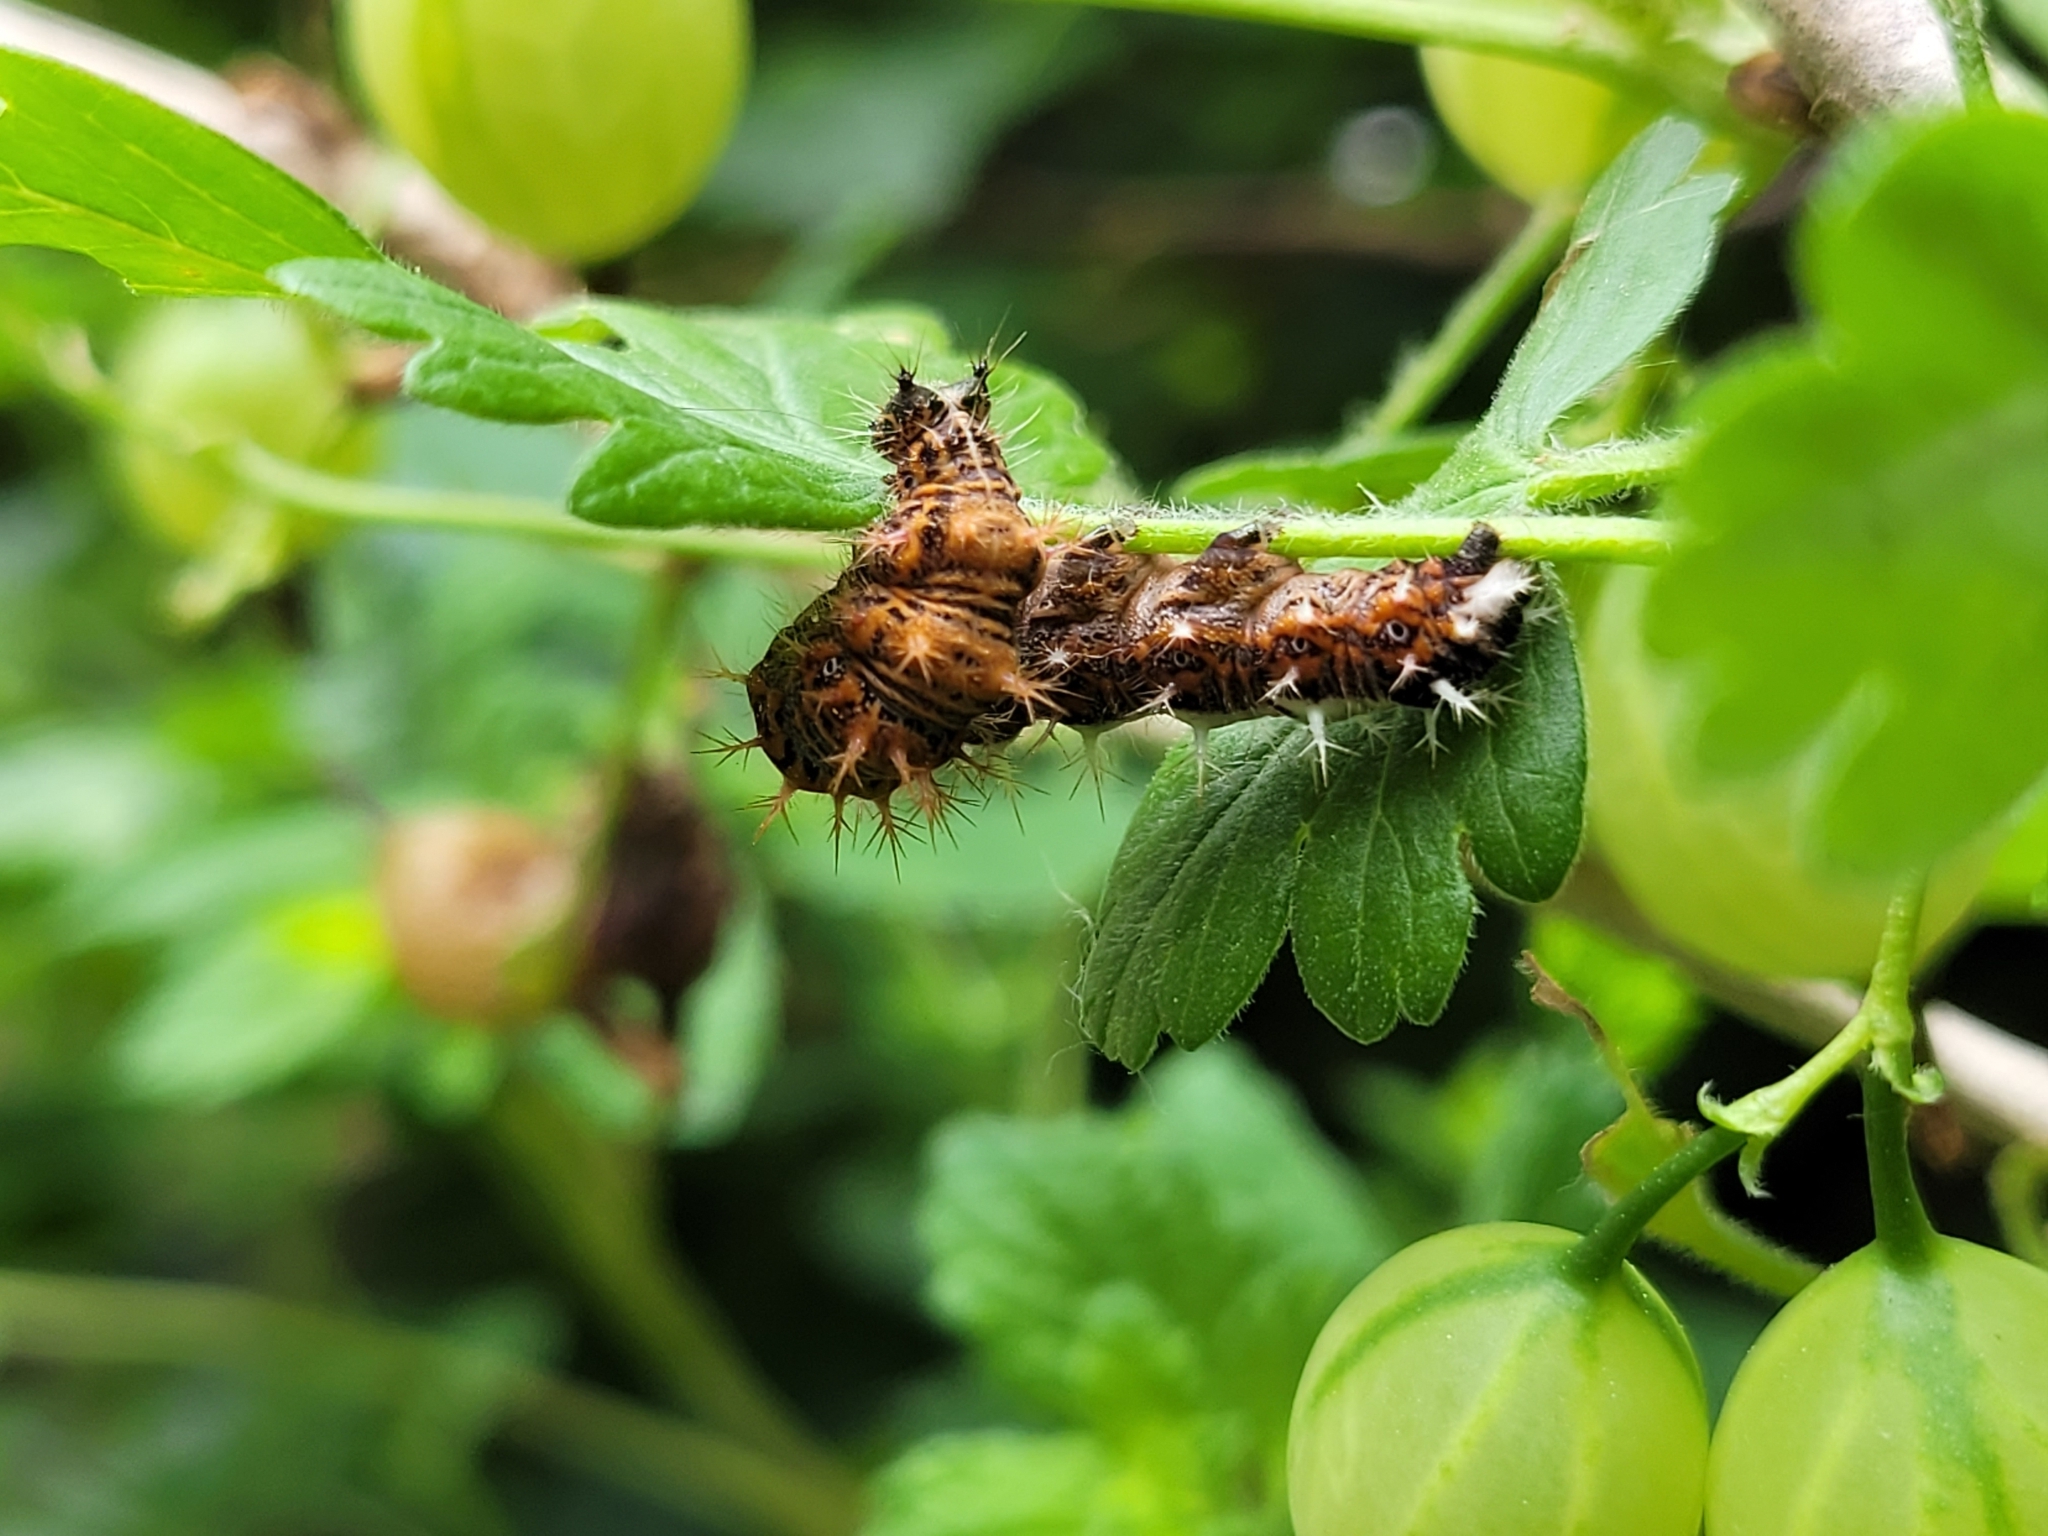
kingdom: Animalia
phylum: Arthropoda
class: Insecta
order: Lepidoptera
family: Nymphalidae
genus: Polygonia
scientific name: Polygonia c-album
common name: Comma
